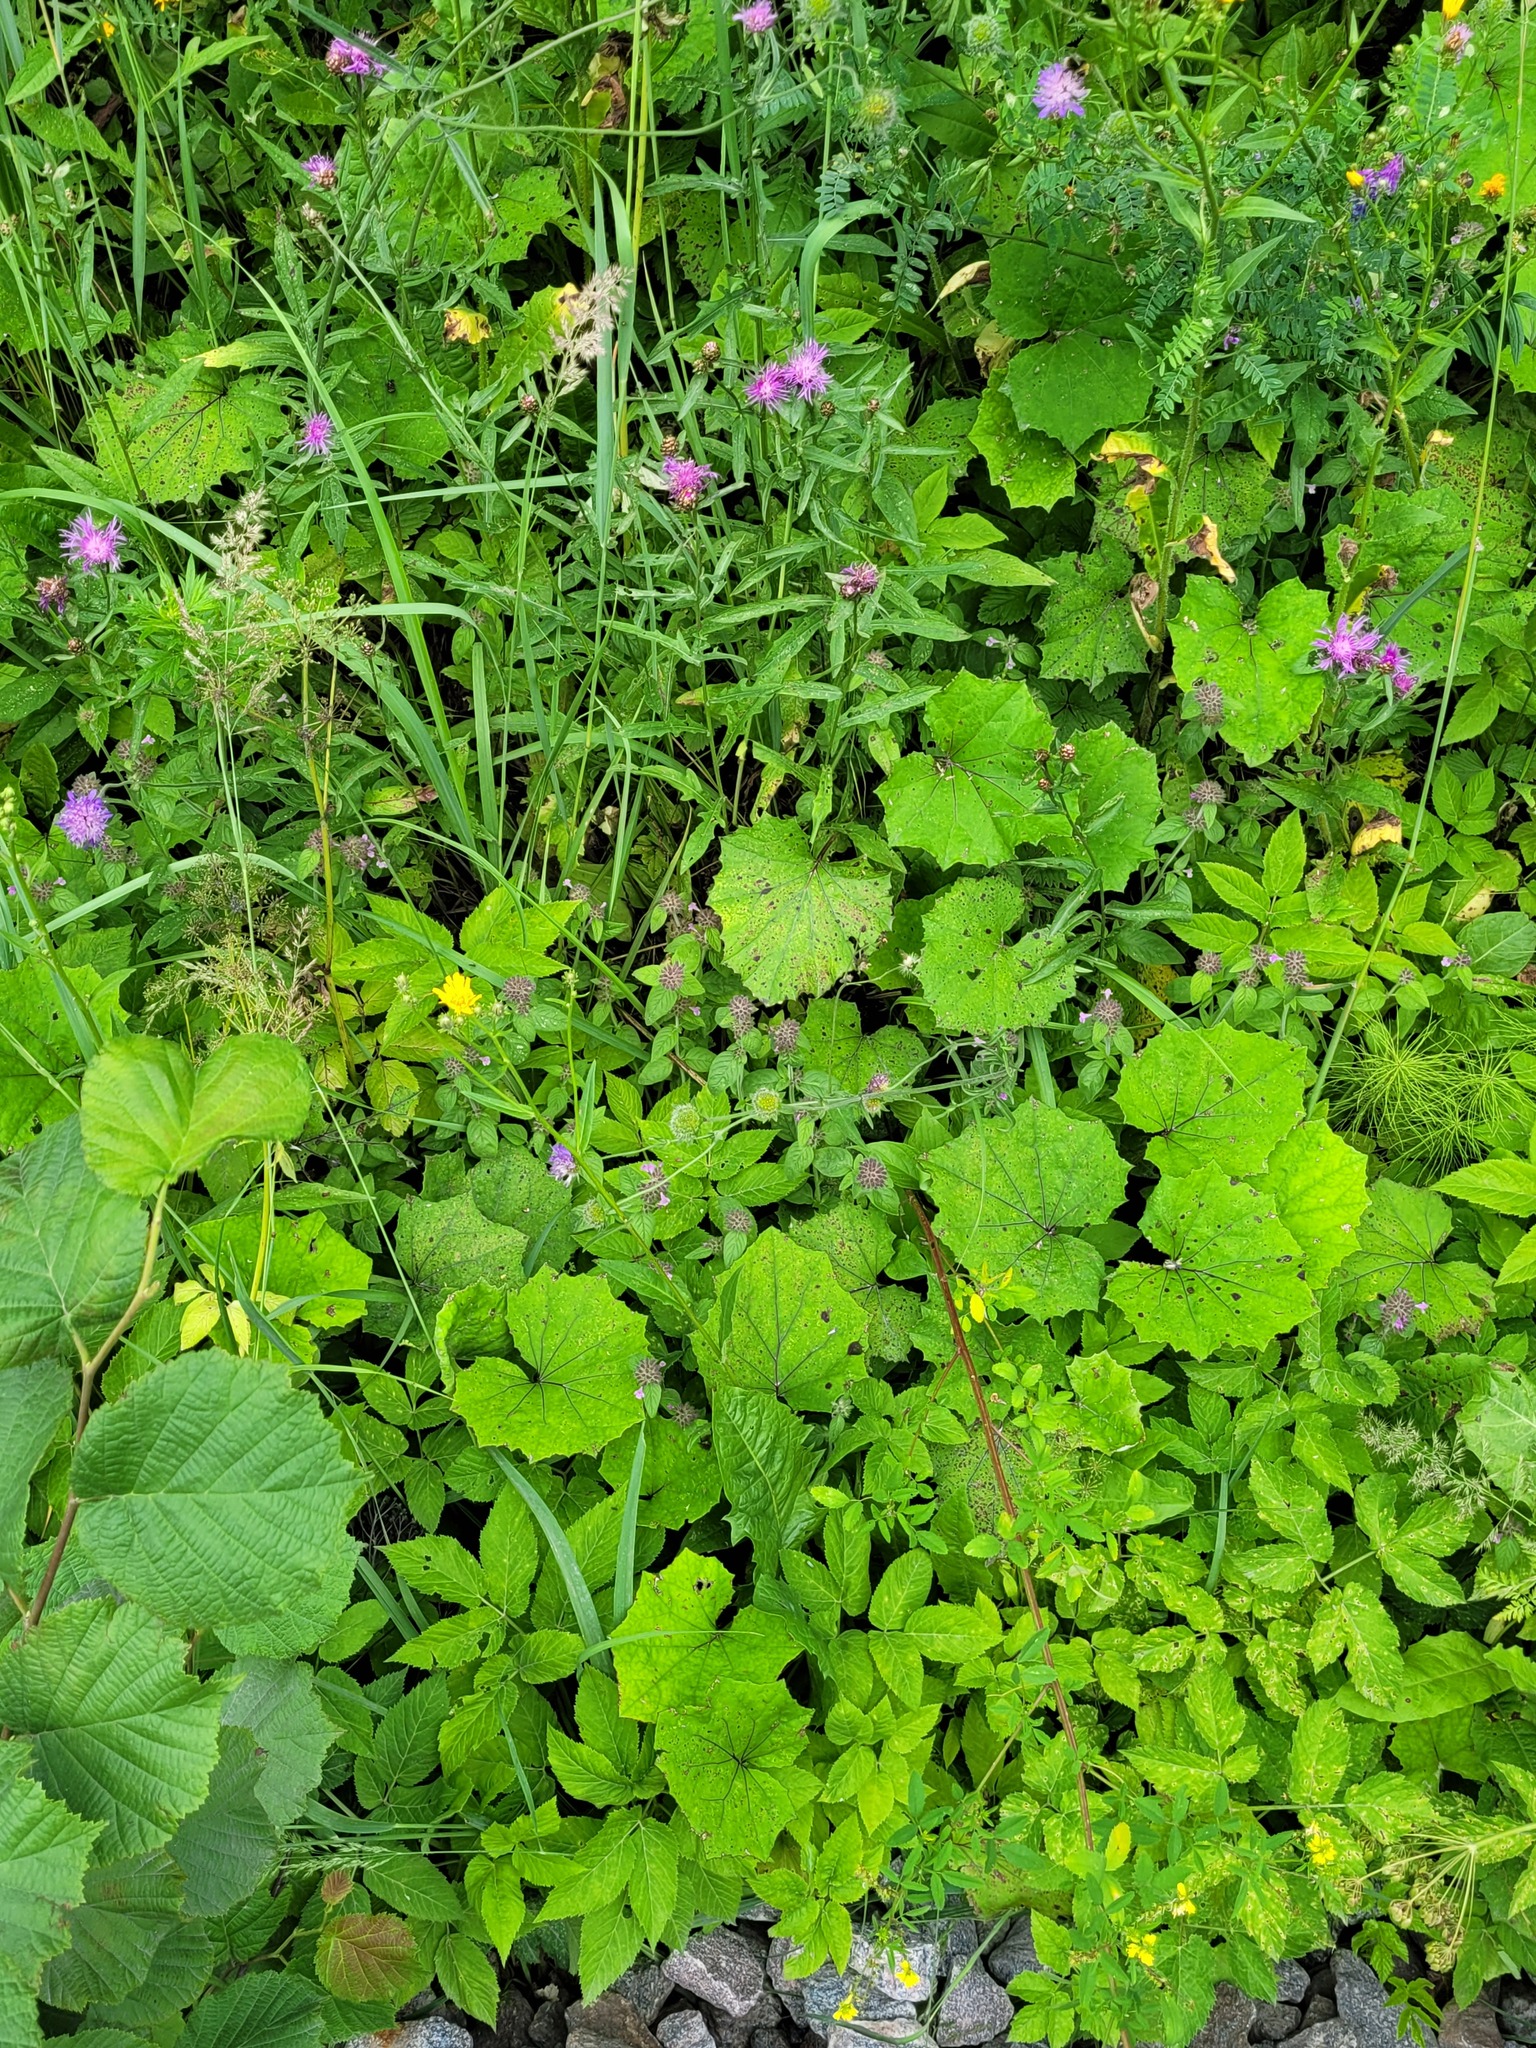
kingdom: Plantae
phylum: Tracheophyta
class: Magnoliopsida
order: Lamiales
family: Lamiaceae
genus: Clinopodium
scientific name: Clinopodium vulgare
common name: Wild basil
